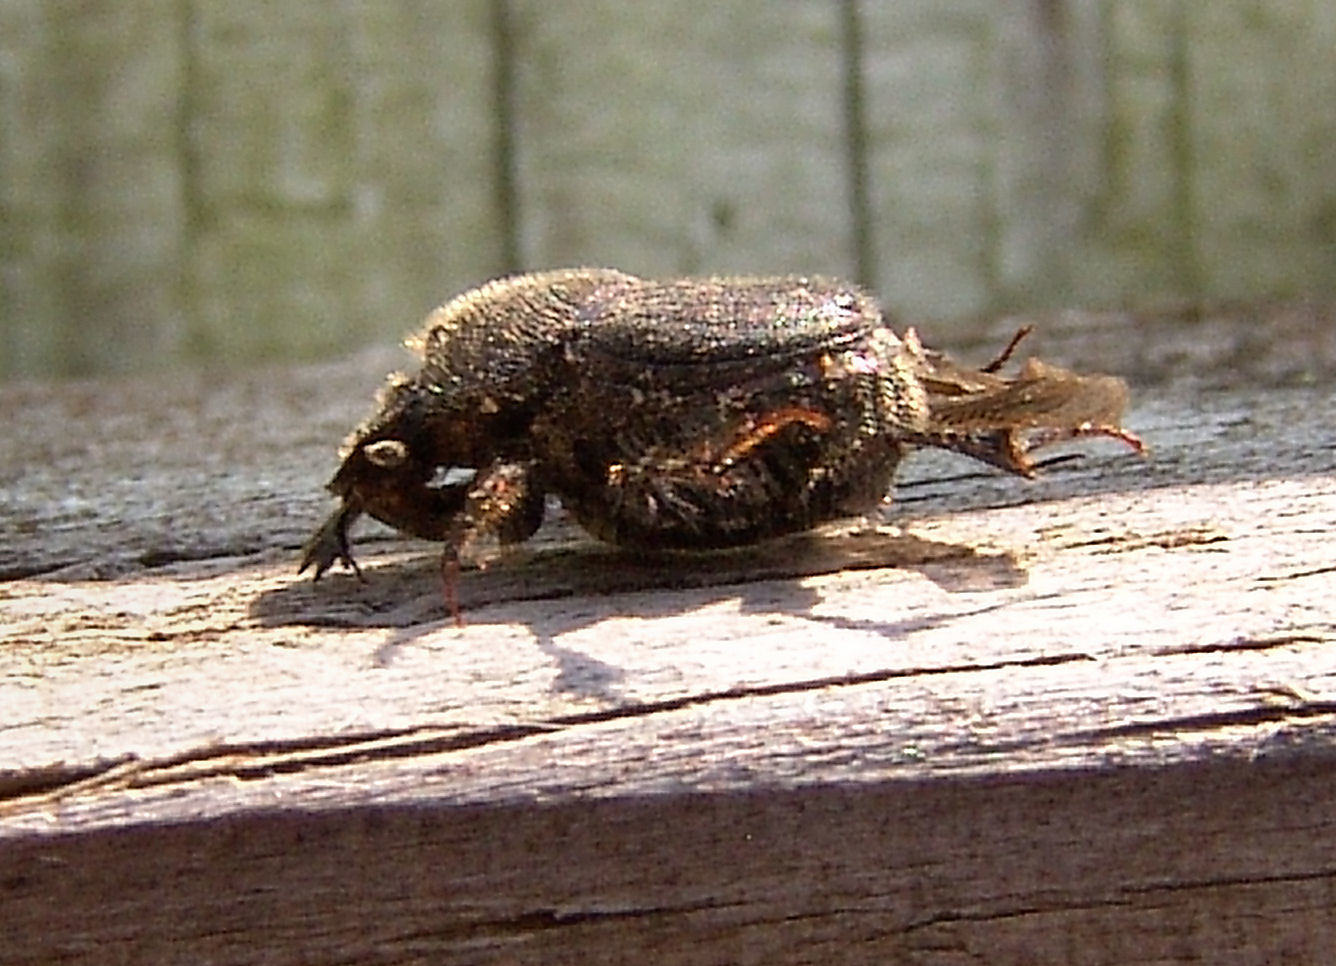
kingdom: Animalia
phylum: Arthropoda
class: Insecta
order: Coleoptera
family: Scarabaeidae
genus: Onthophagus
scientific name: Onthophagus hecate
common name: Scooped scarab
